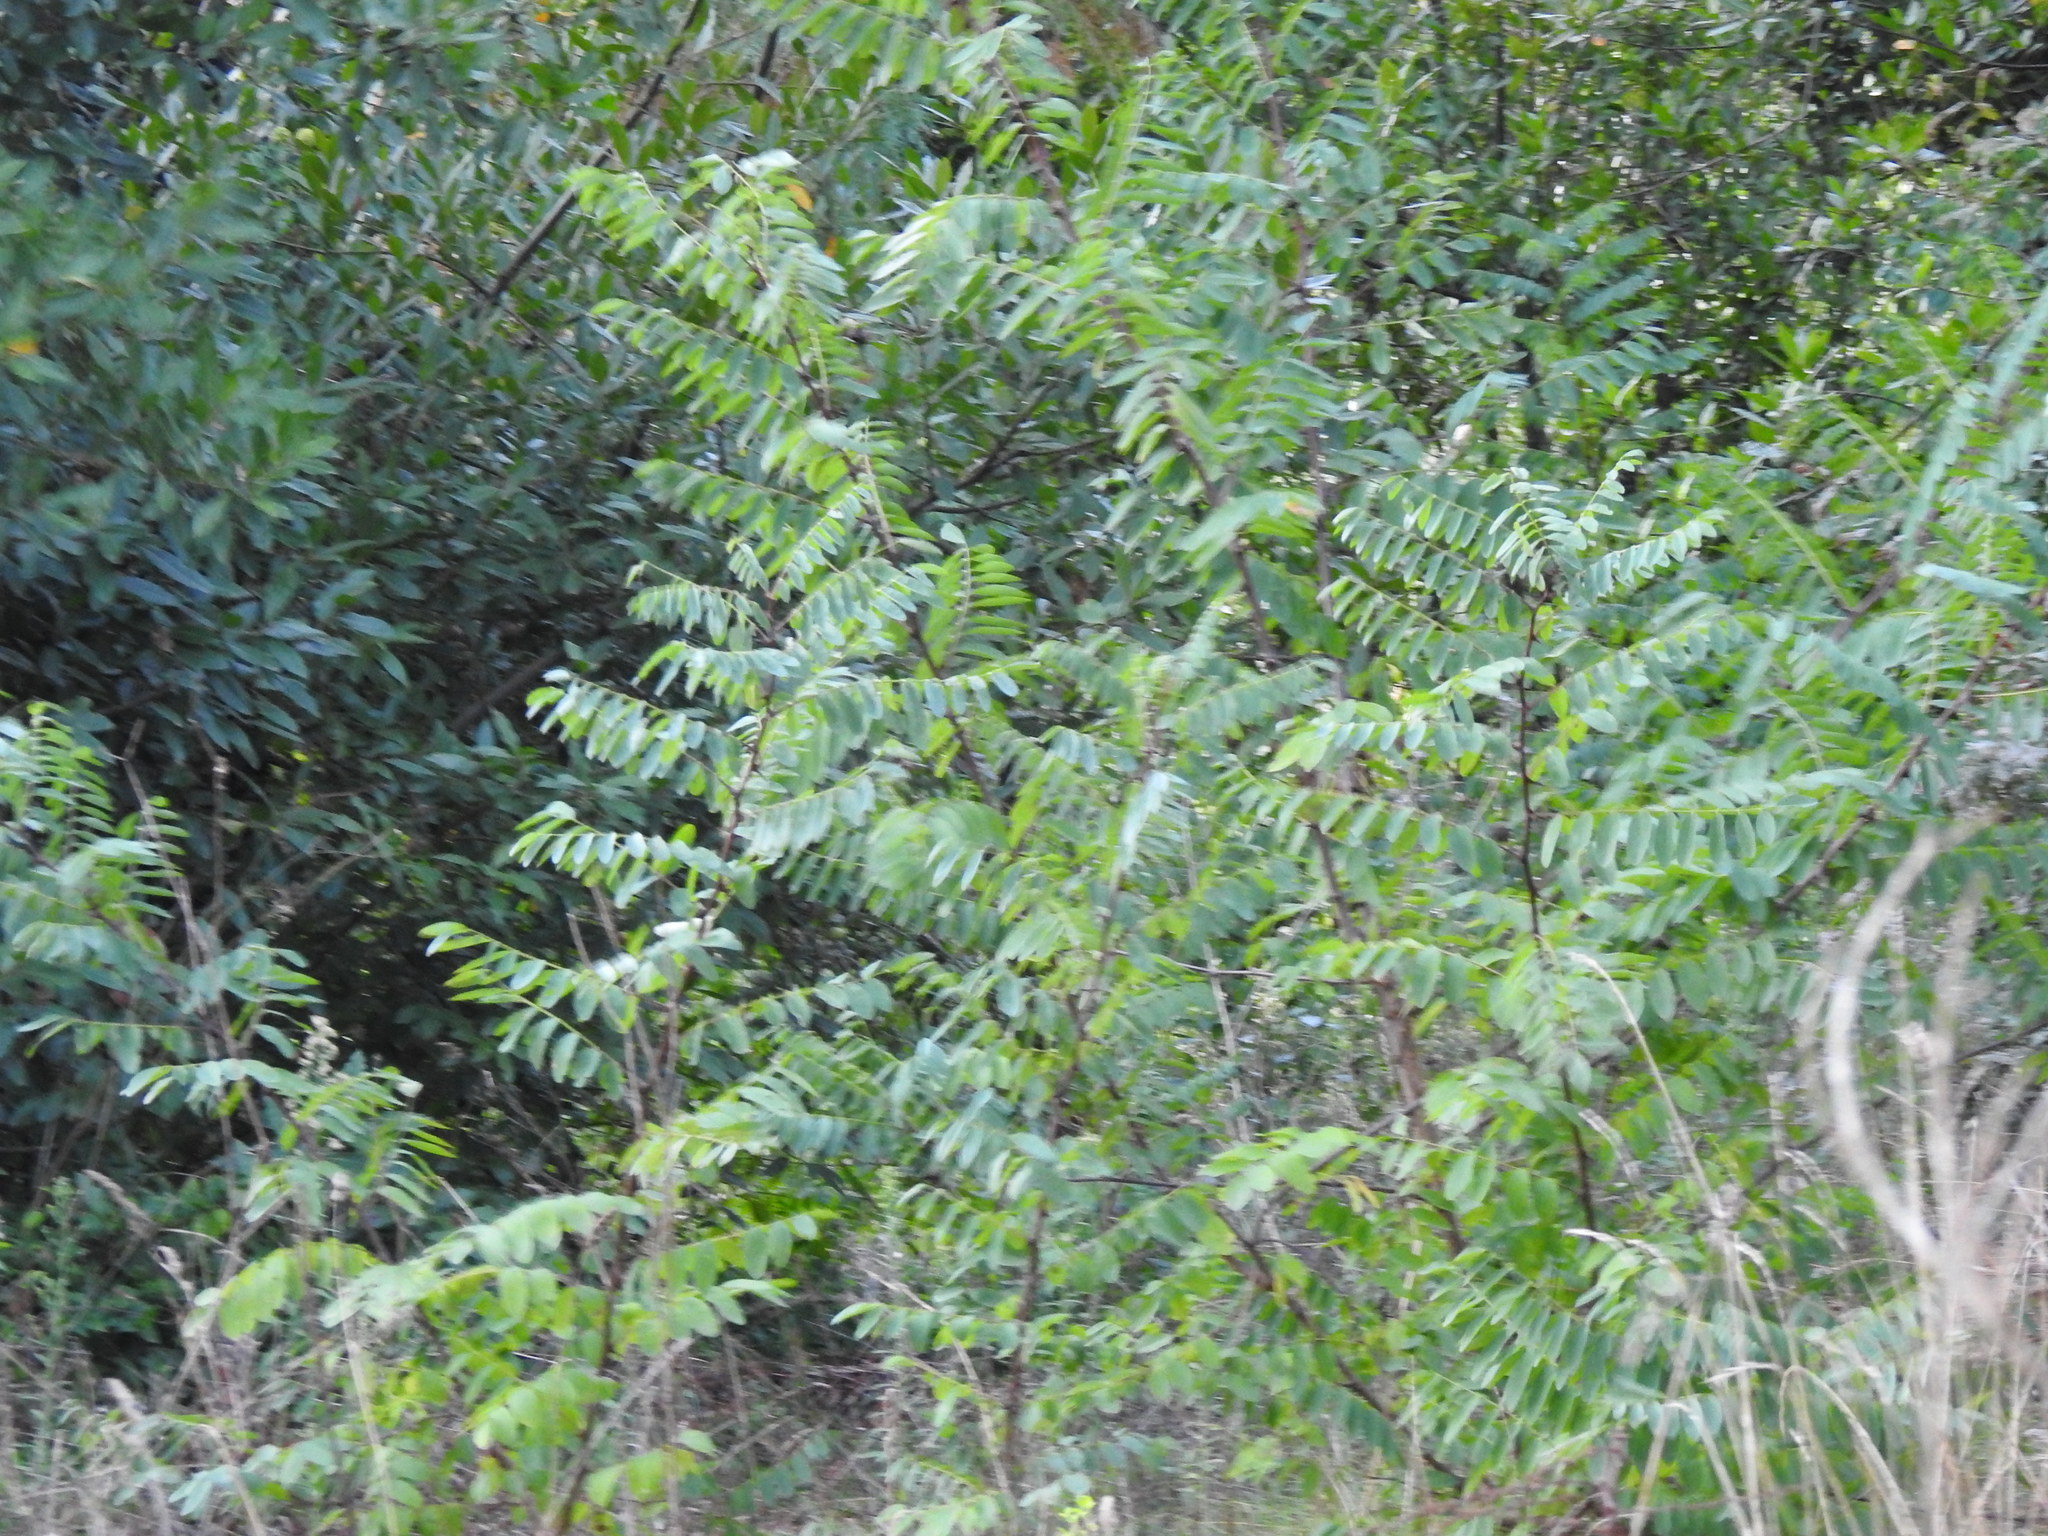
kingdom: Plantae
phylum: Tracheophyta
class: Magnoliopsida
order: Fabales
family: Fabaceae
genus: Robinia
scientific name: Robinia pseudoacacia
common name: Black locust
